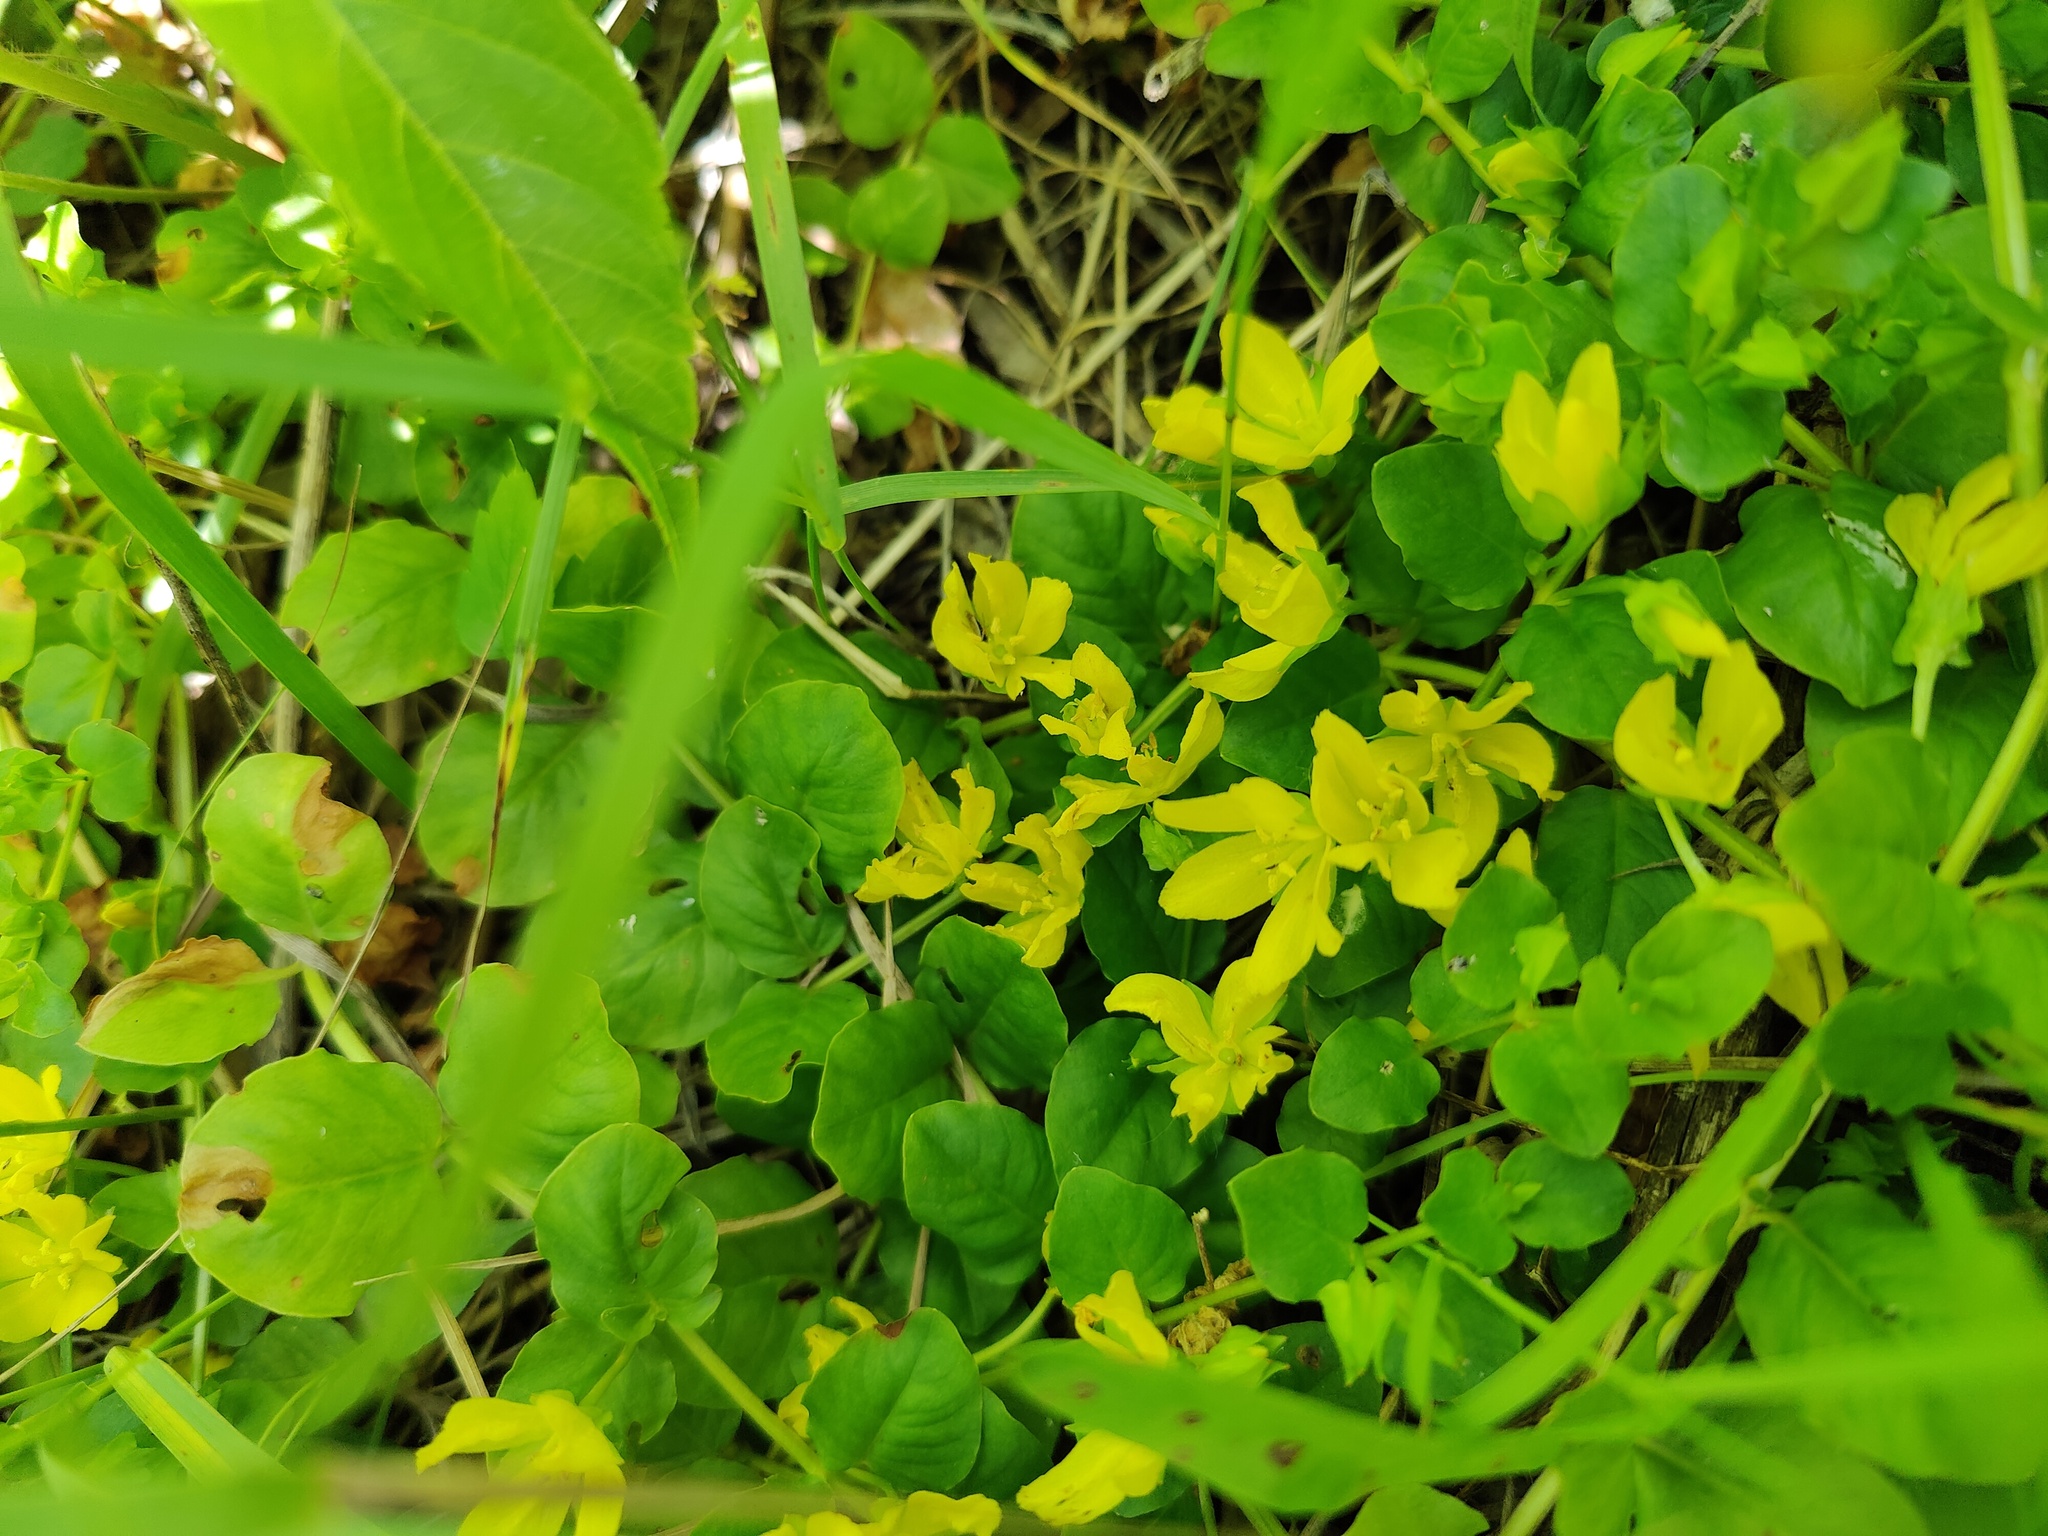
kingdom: Plantae
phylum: Tracheophyta
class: Magnoliopsida
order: Ericales
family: Primulaceae
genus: Lysimachia
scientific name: Lysimachia nummularia
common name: Moneywort
